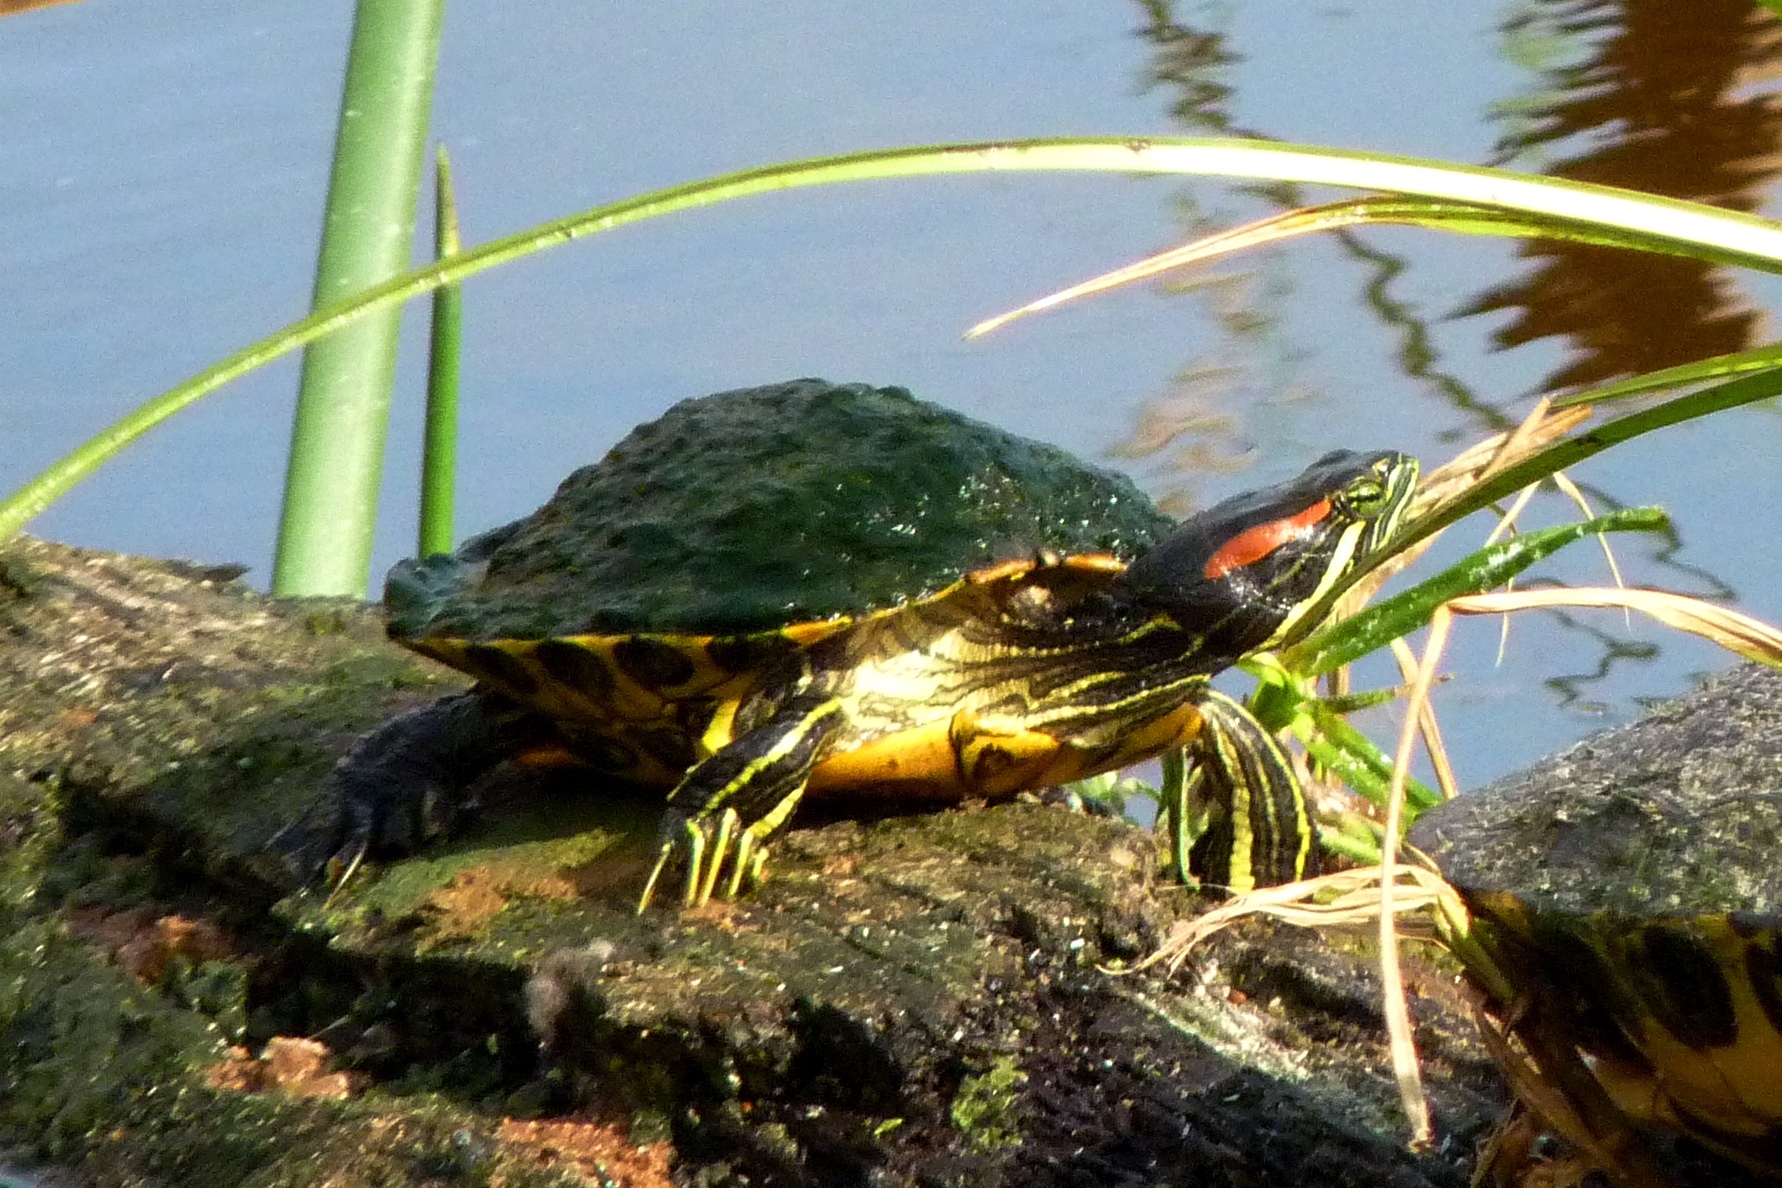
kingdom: Animalia
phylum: Chordata
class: Testudines
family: Emydidae
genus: Trachemys
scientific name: Trachemys scripta
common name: Slider
